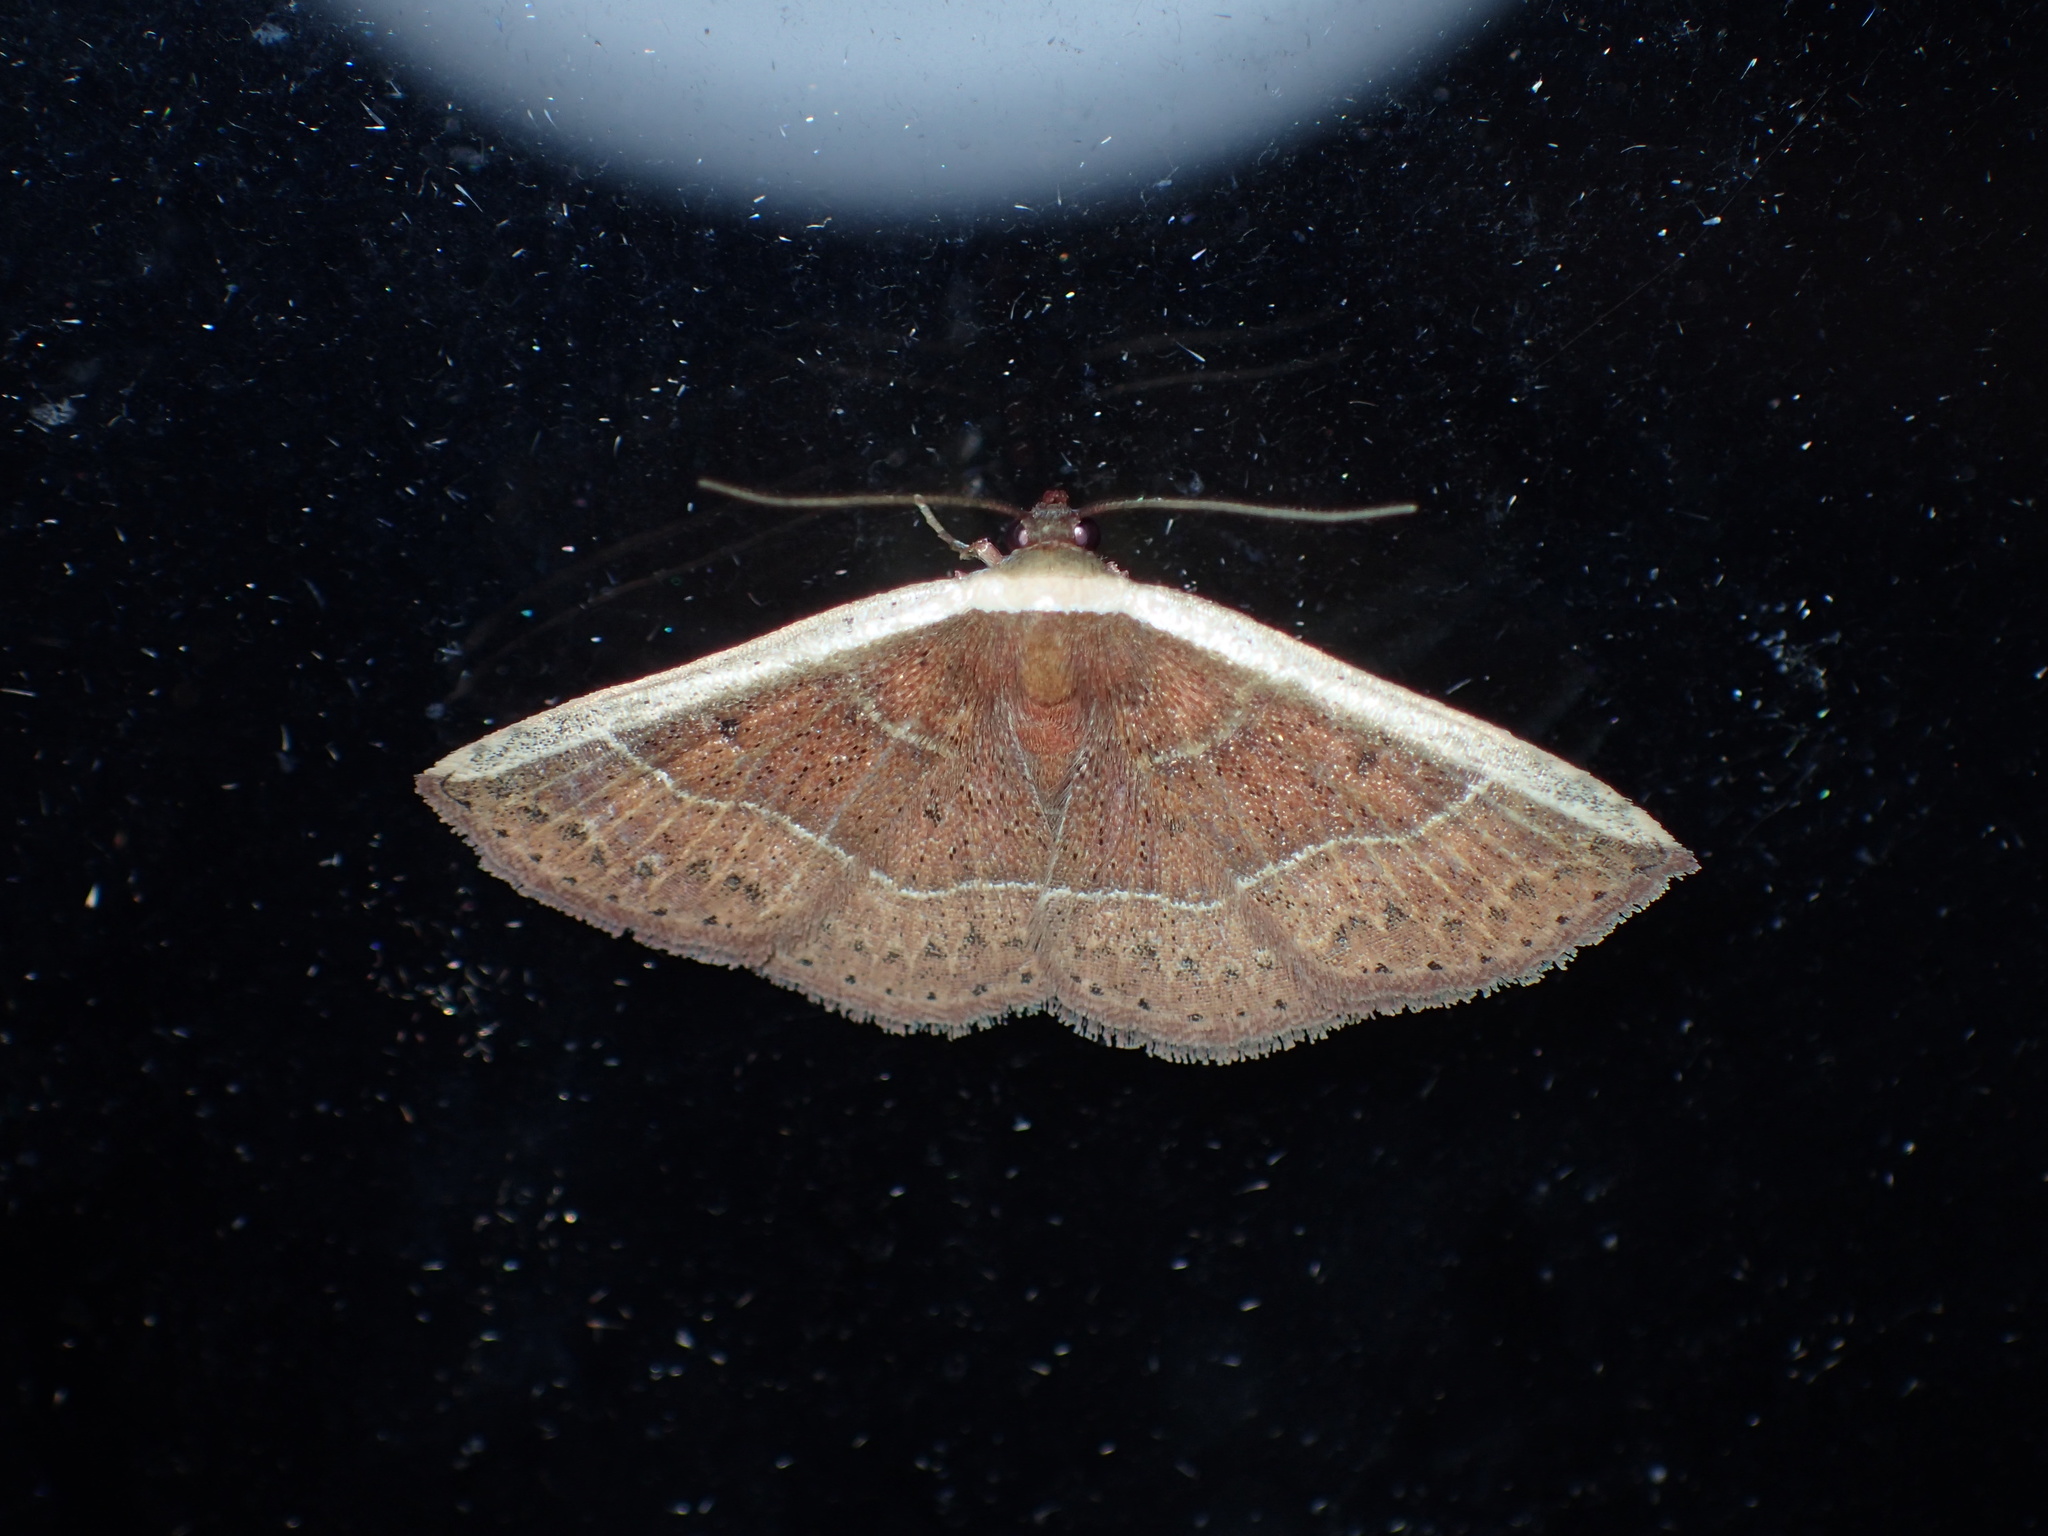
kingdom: Animalia
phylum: Arthropoda
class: Insecta
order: Lepidoptera
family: Noctuidae
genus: Ozarba
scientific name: Ozarba albocostaliata
